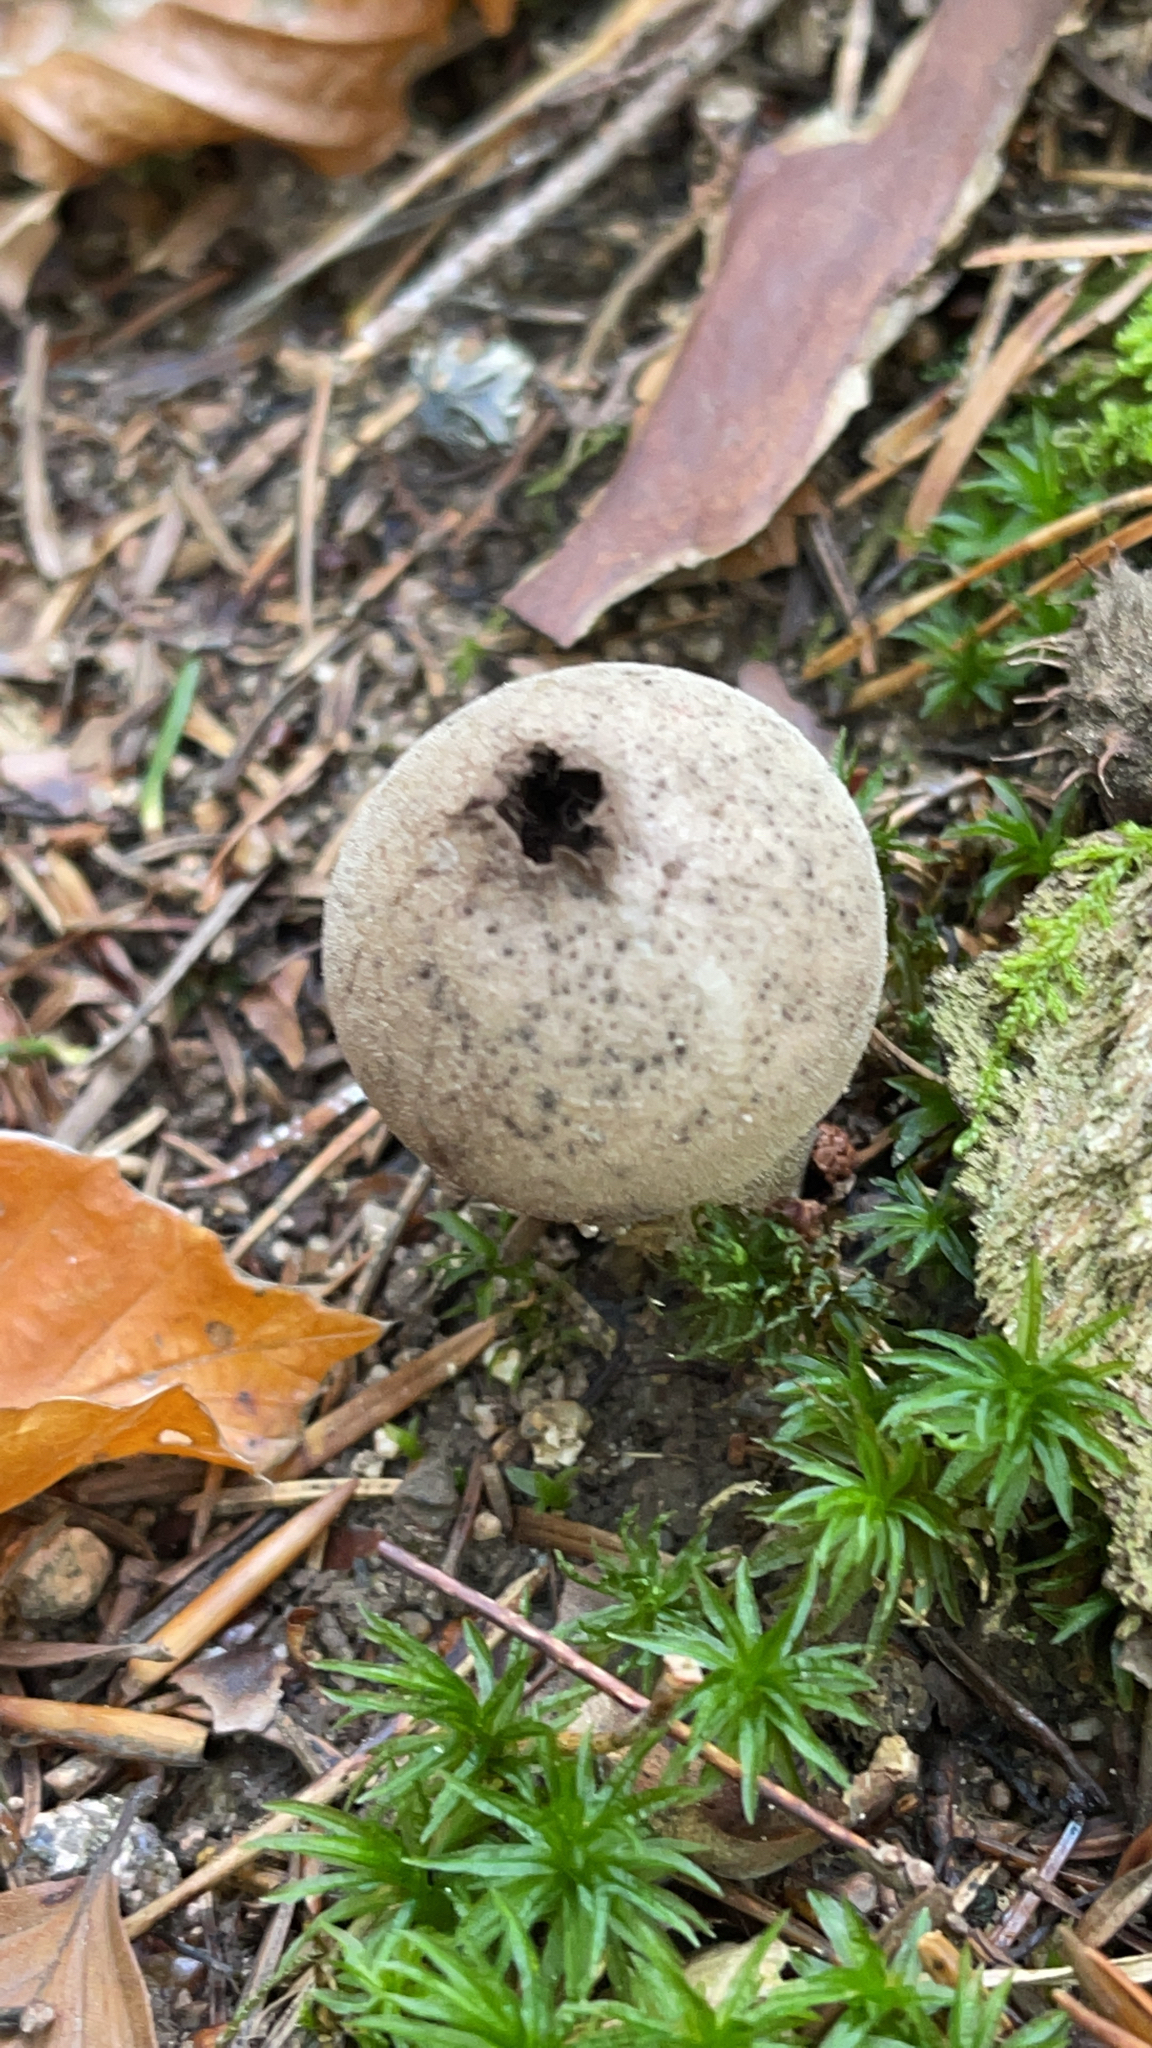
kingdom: Fungi
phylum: Basidiomycota
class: Agaricomycetes
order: Agaricales
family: Lycoperdaceae
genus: Lycoperdon
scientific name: Lycoperdon perlatum
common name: Common puffball
